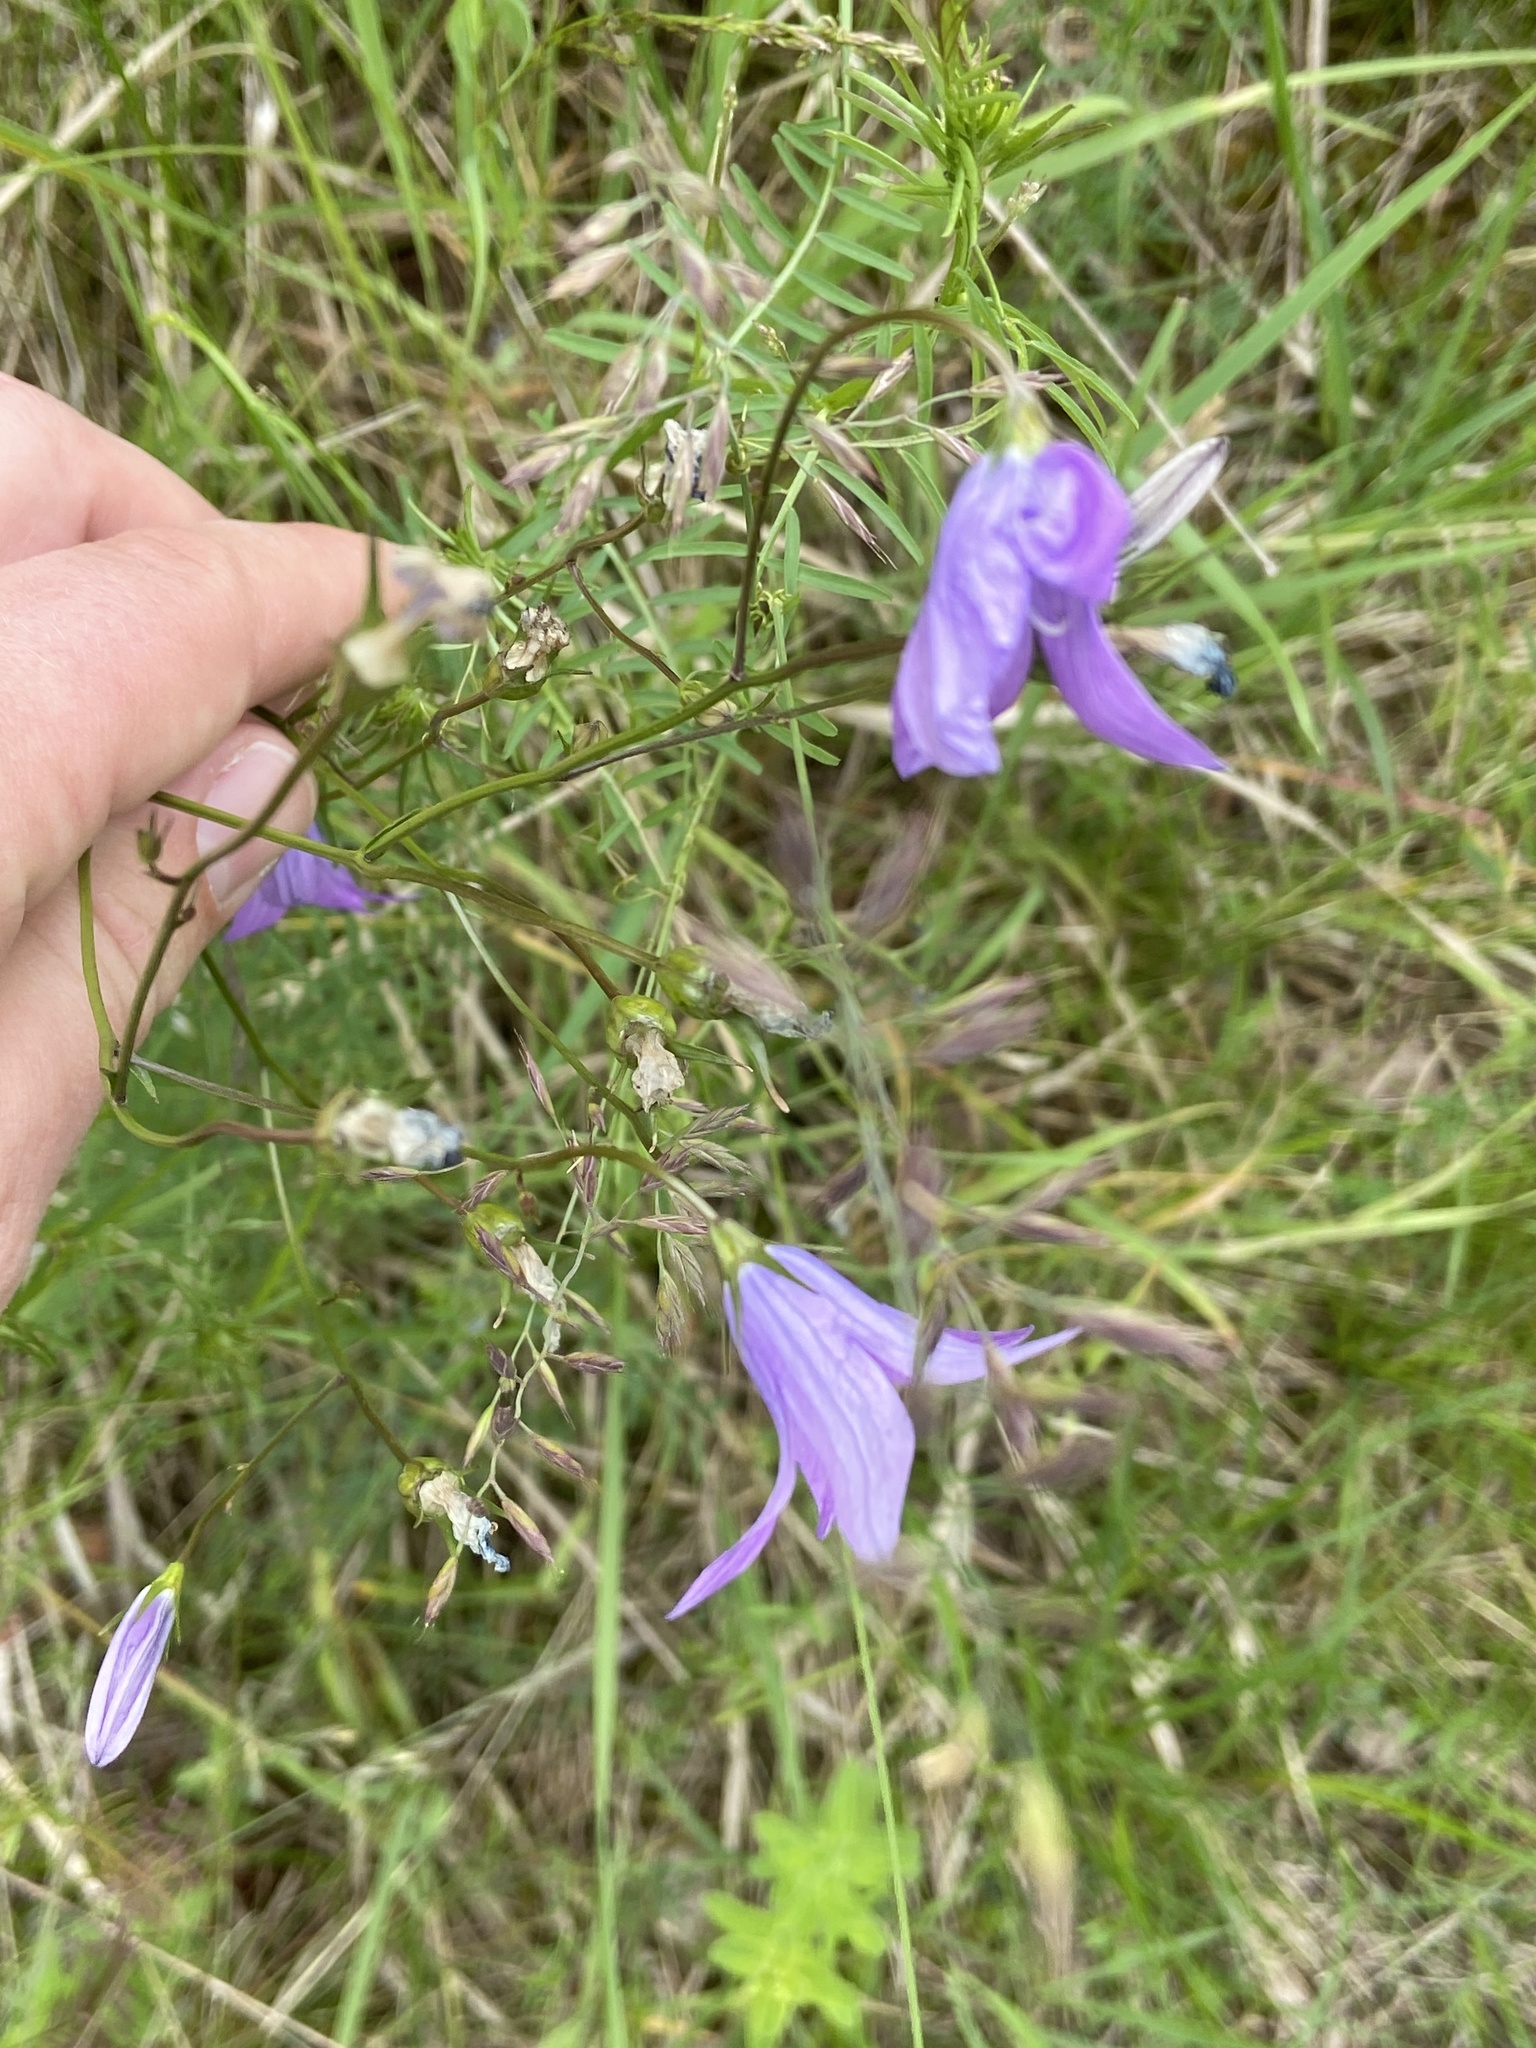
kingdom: Plantae
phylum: Tracheophyta
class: Magnoliopsida
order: Asterales
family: Campanulaceae
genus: Campanula
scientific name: Campanula patula
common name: Spreading bellflower
